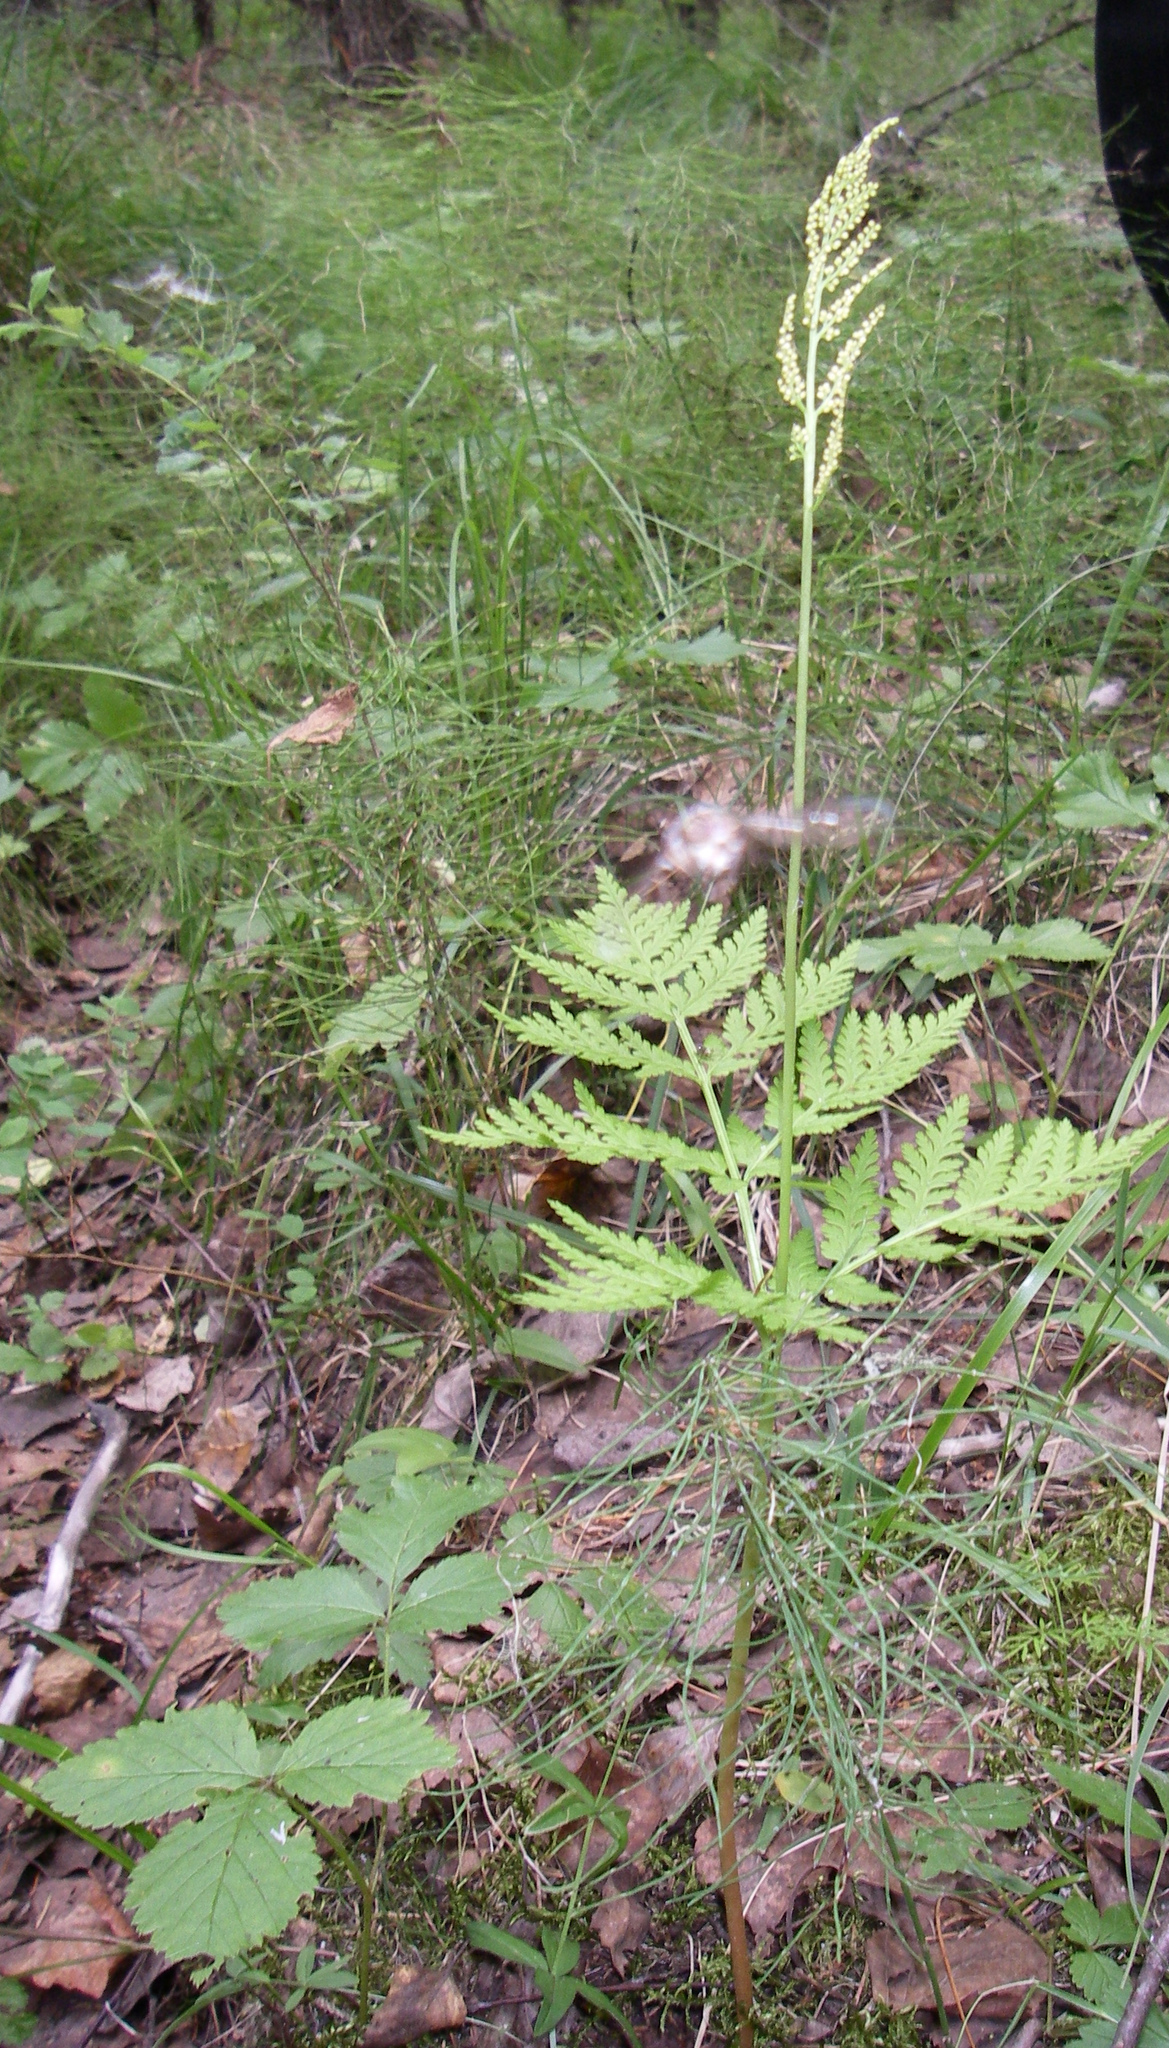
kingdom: Plantae
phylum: Tracheophyta
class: Polypodiopsida
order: Ophioglossales
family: Ophioglossaceae
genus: Botrypus
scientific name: Botrypus virginianus
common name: Common grapefern
